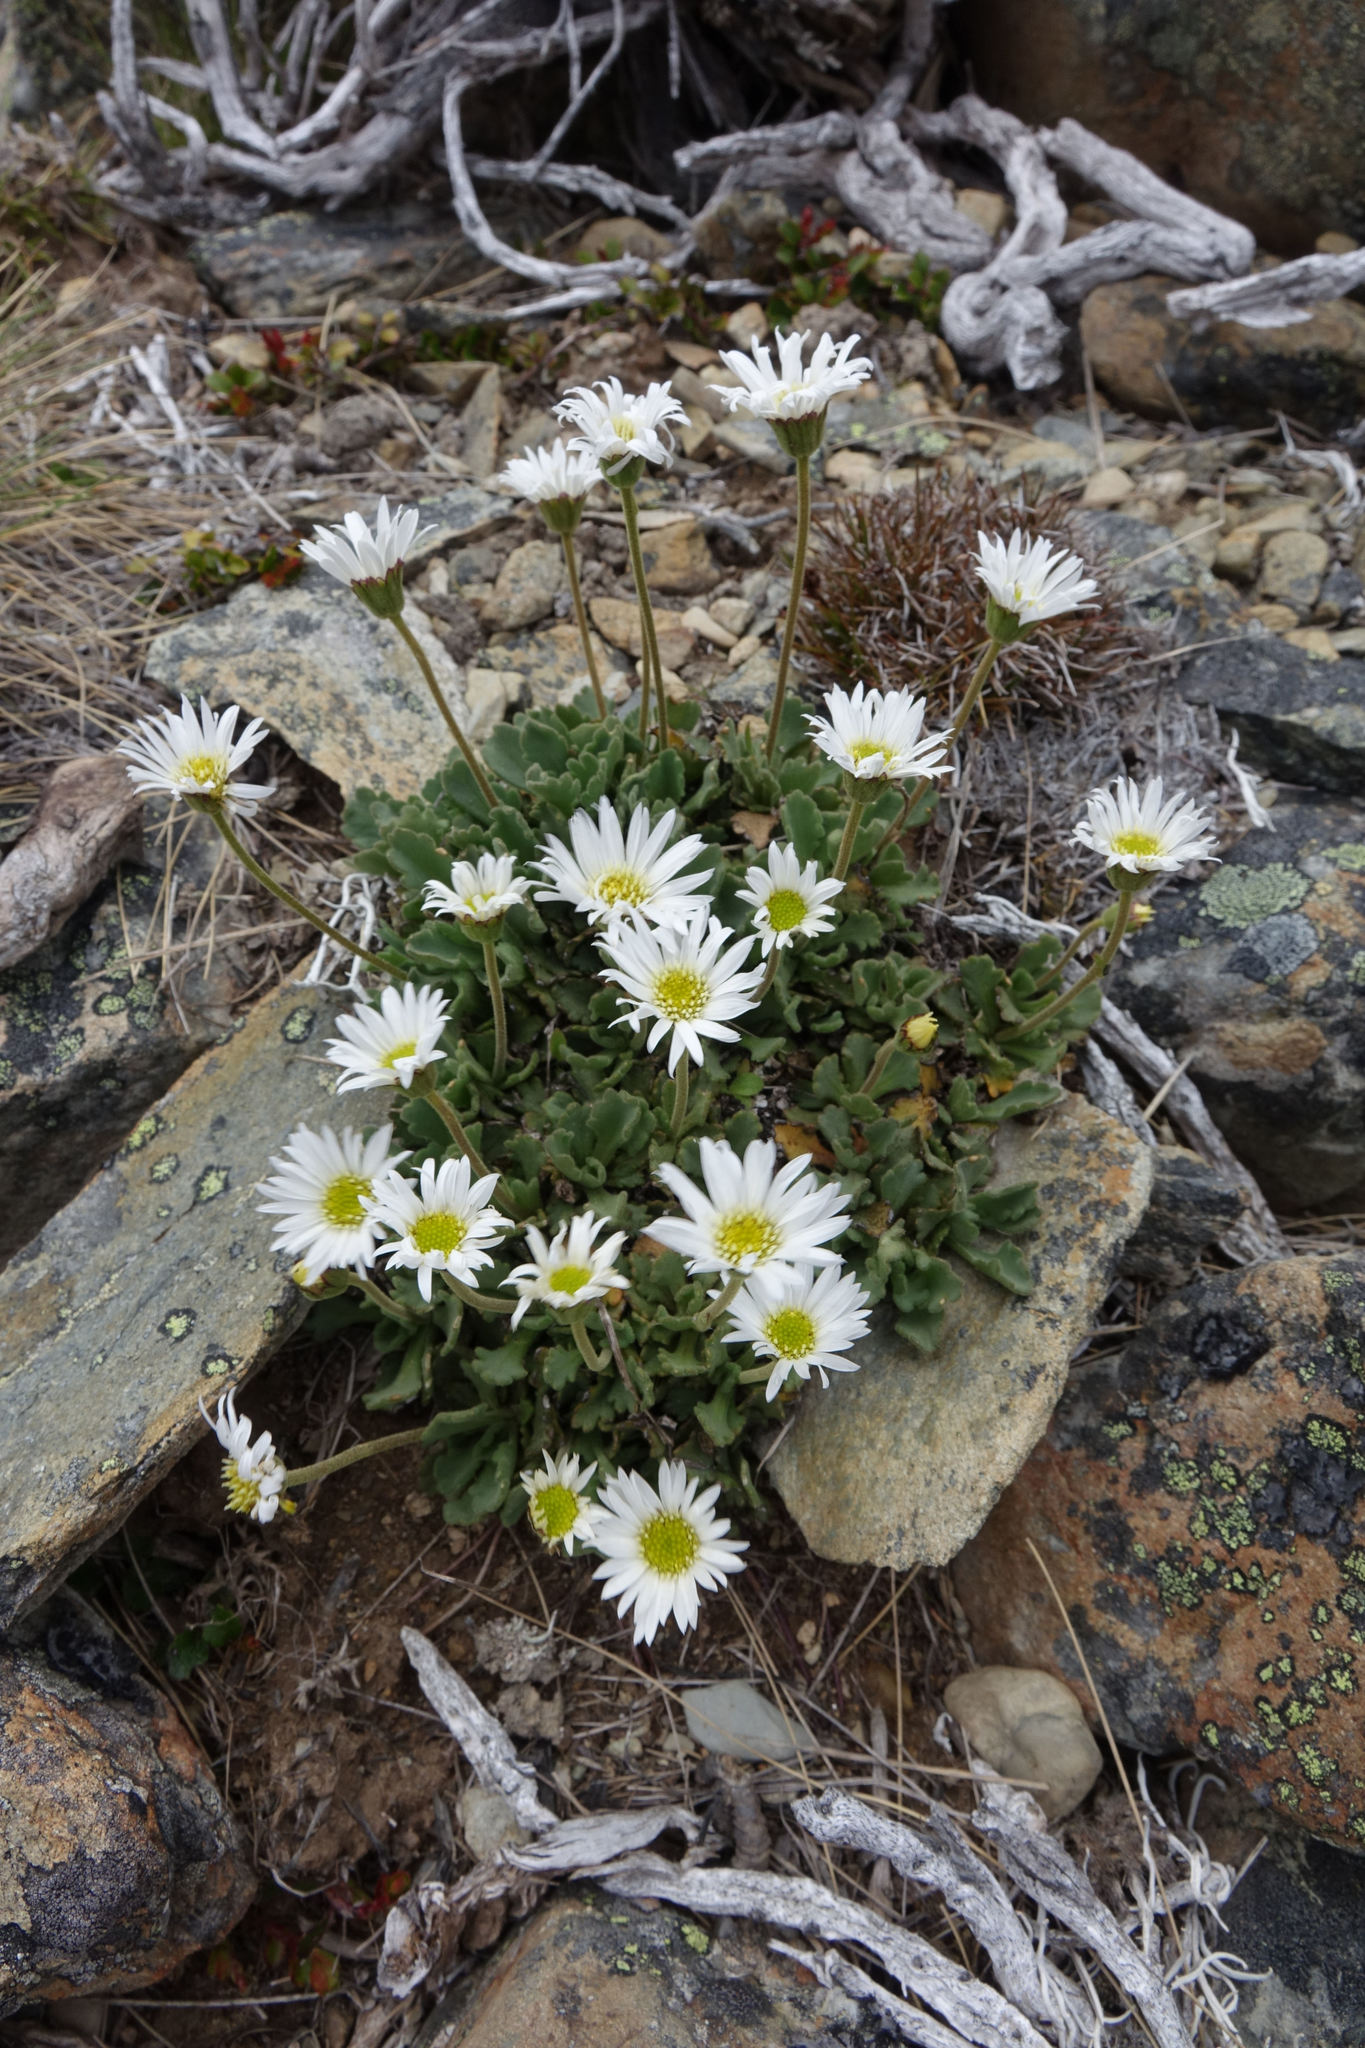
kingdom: Plantae
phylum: Tracheophyta
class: Magnoliopsida
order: Asterales
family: Asteraceae
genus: Brachyscome
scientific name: Brachyscome montana
